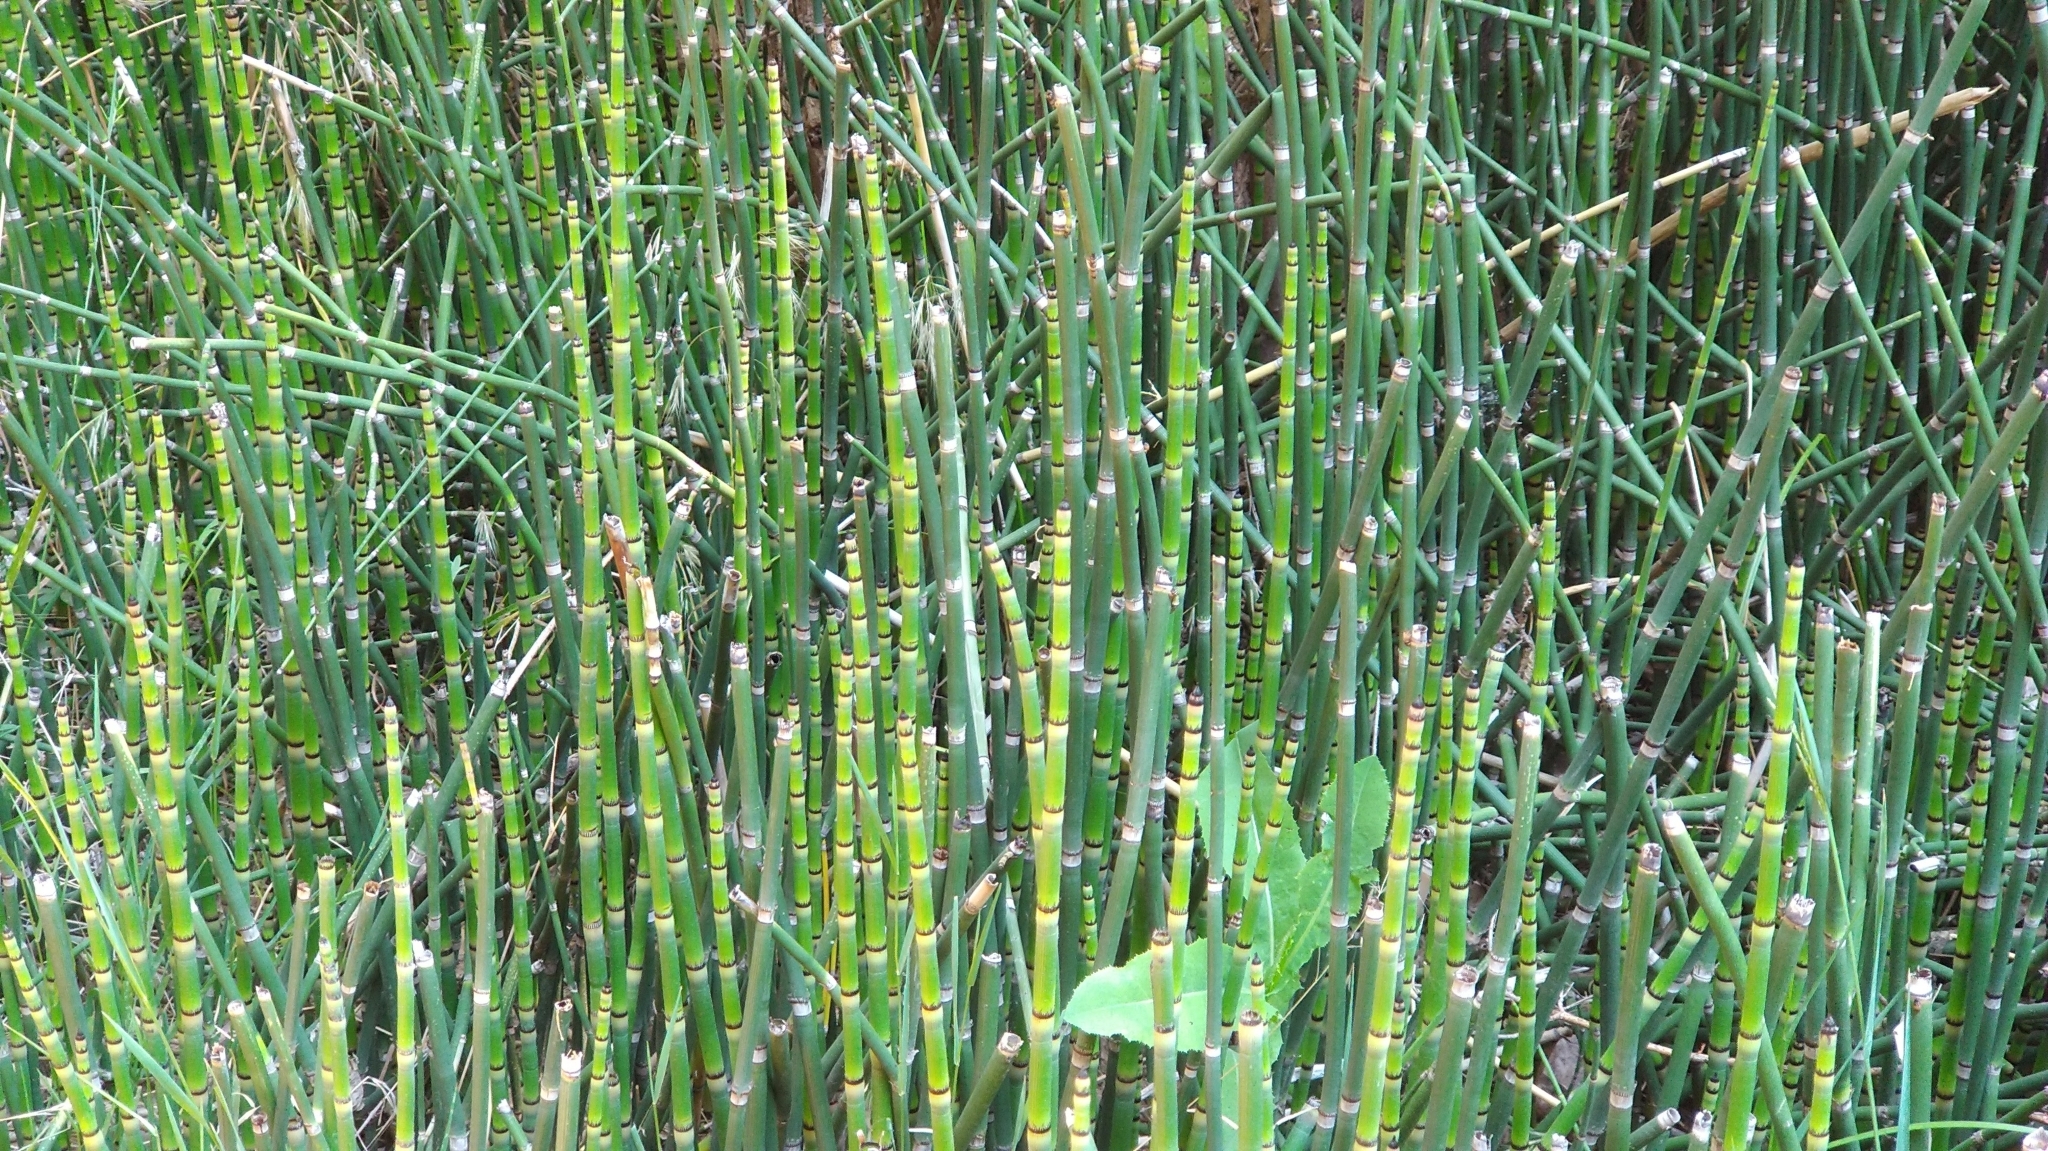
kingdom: Plantae
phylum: Tracheophyta
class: Polypodiopsida
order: Equisetales
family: Equisetaceae
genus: Equisetum
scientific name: Equisetum praealtum
